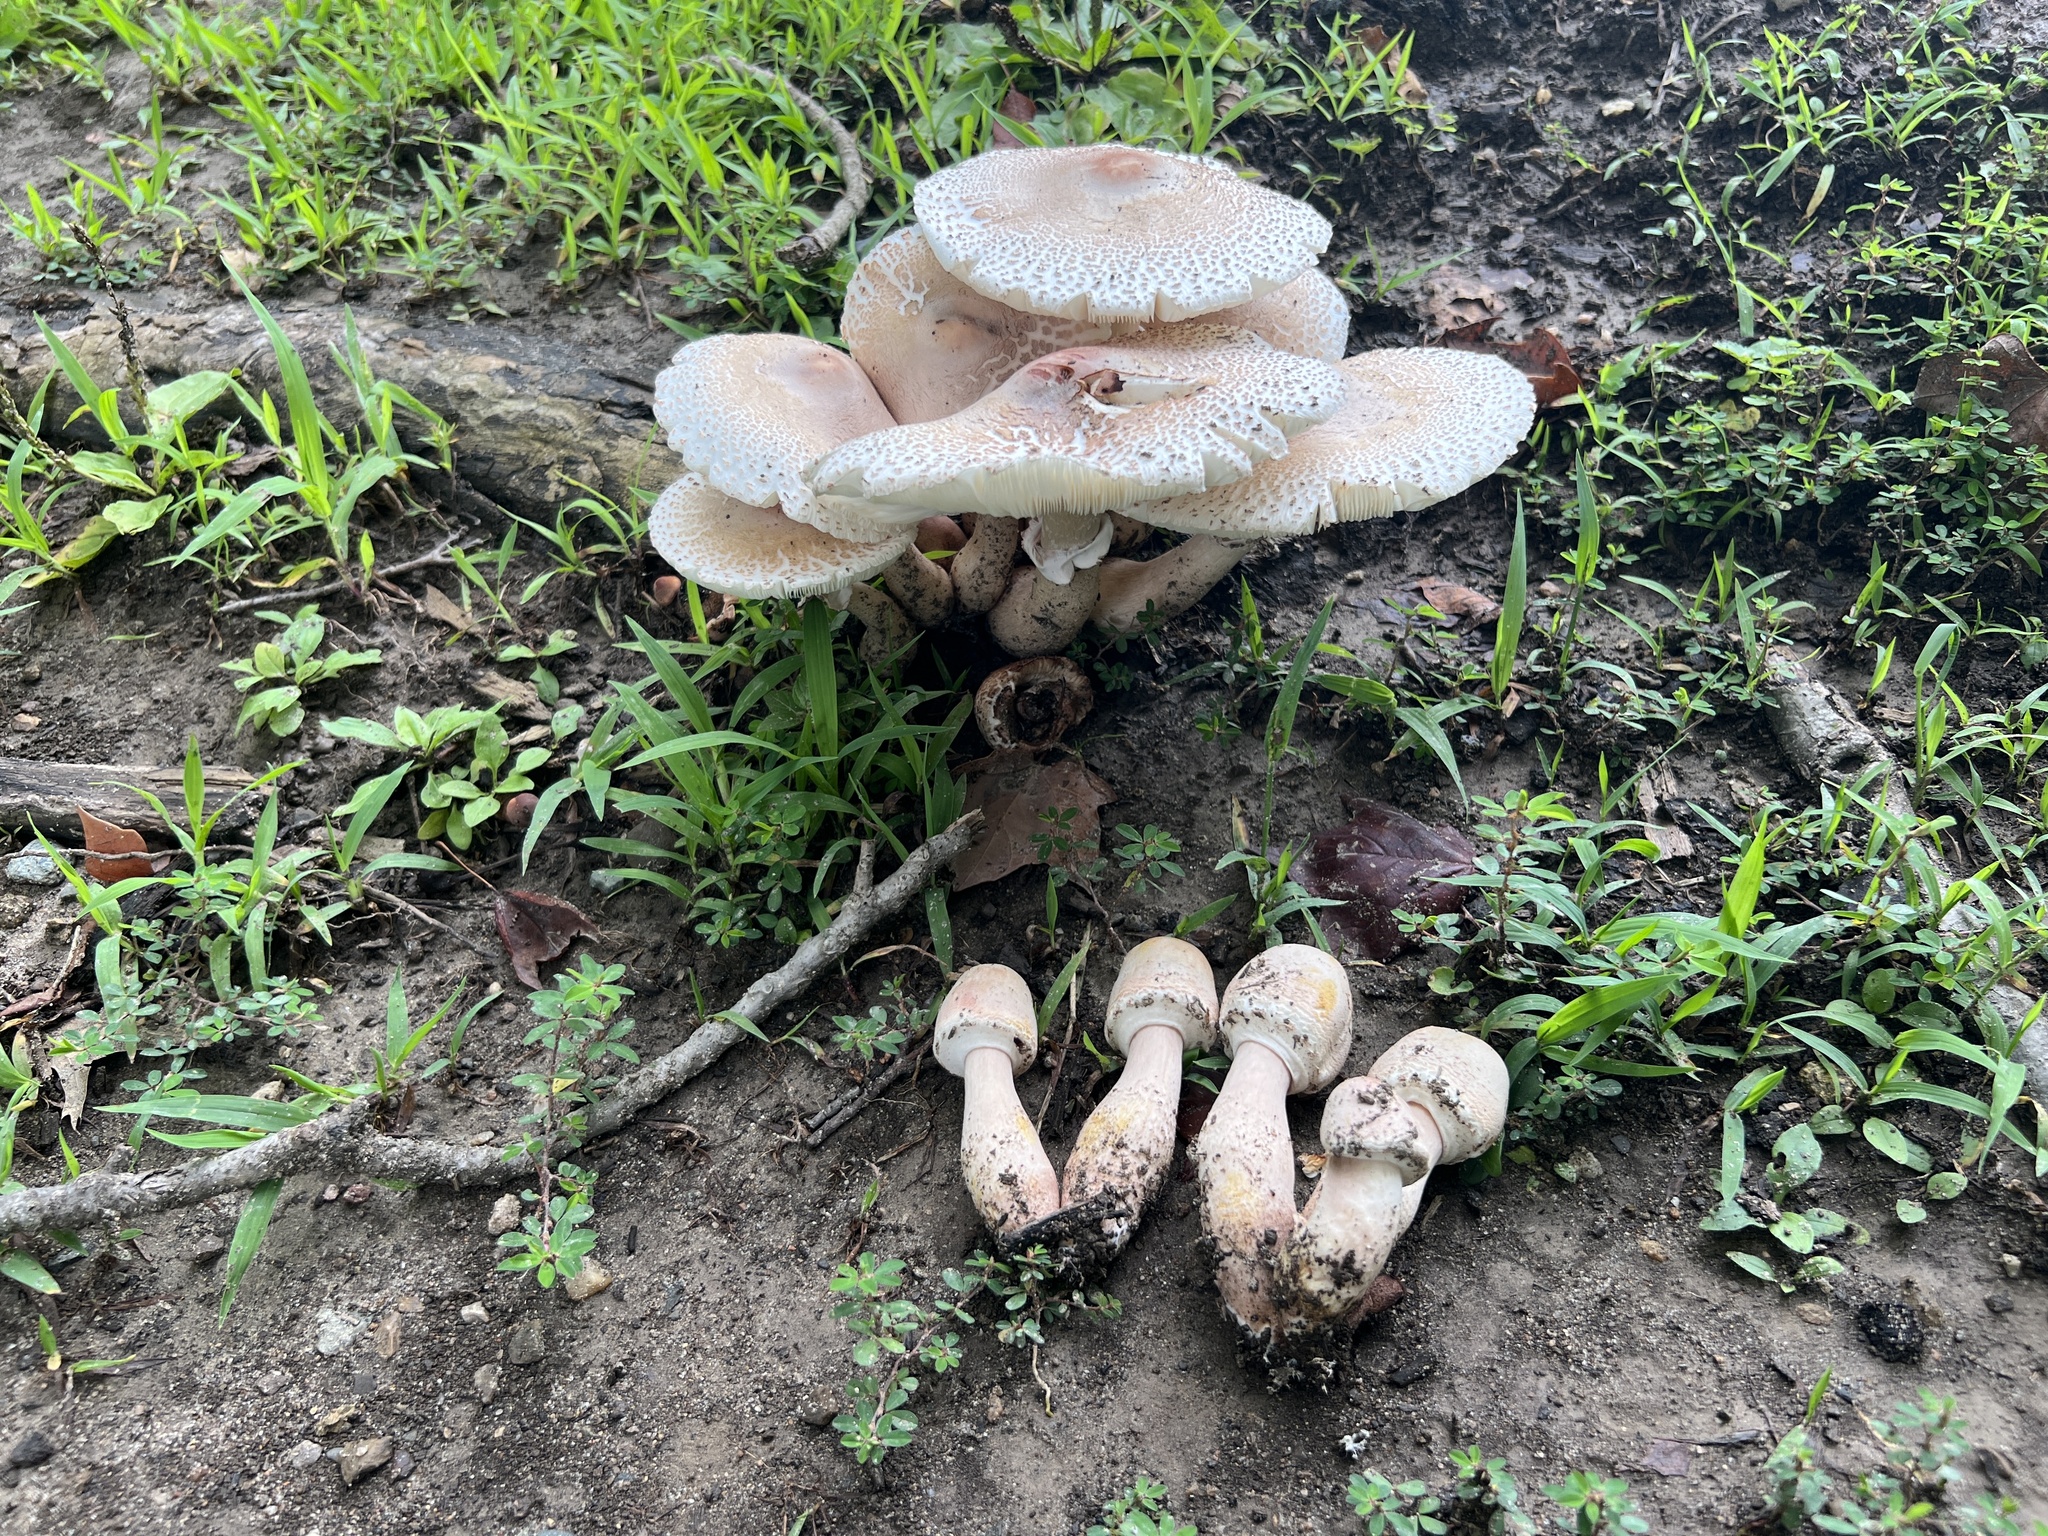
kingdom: Fungi
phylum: Basidiomycota
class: Agaricomycetes
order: Agaricales
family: Agaricaceae
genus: Leucoagaricus
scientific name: Leucoagaricus americanus
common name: Reddening lepiota
